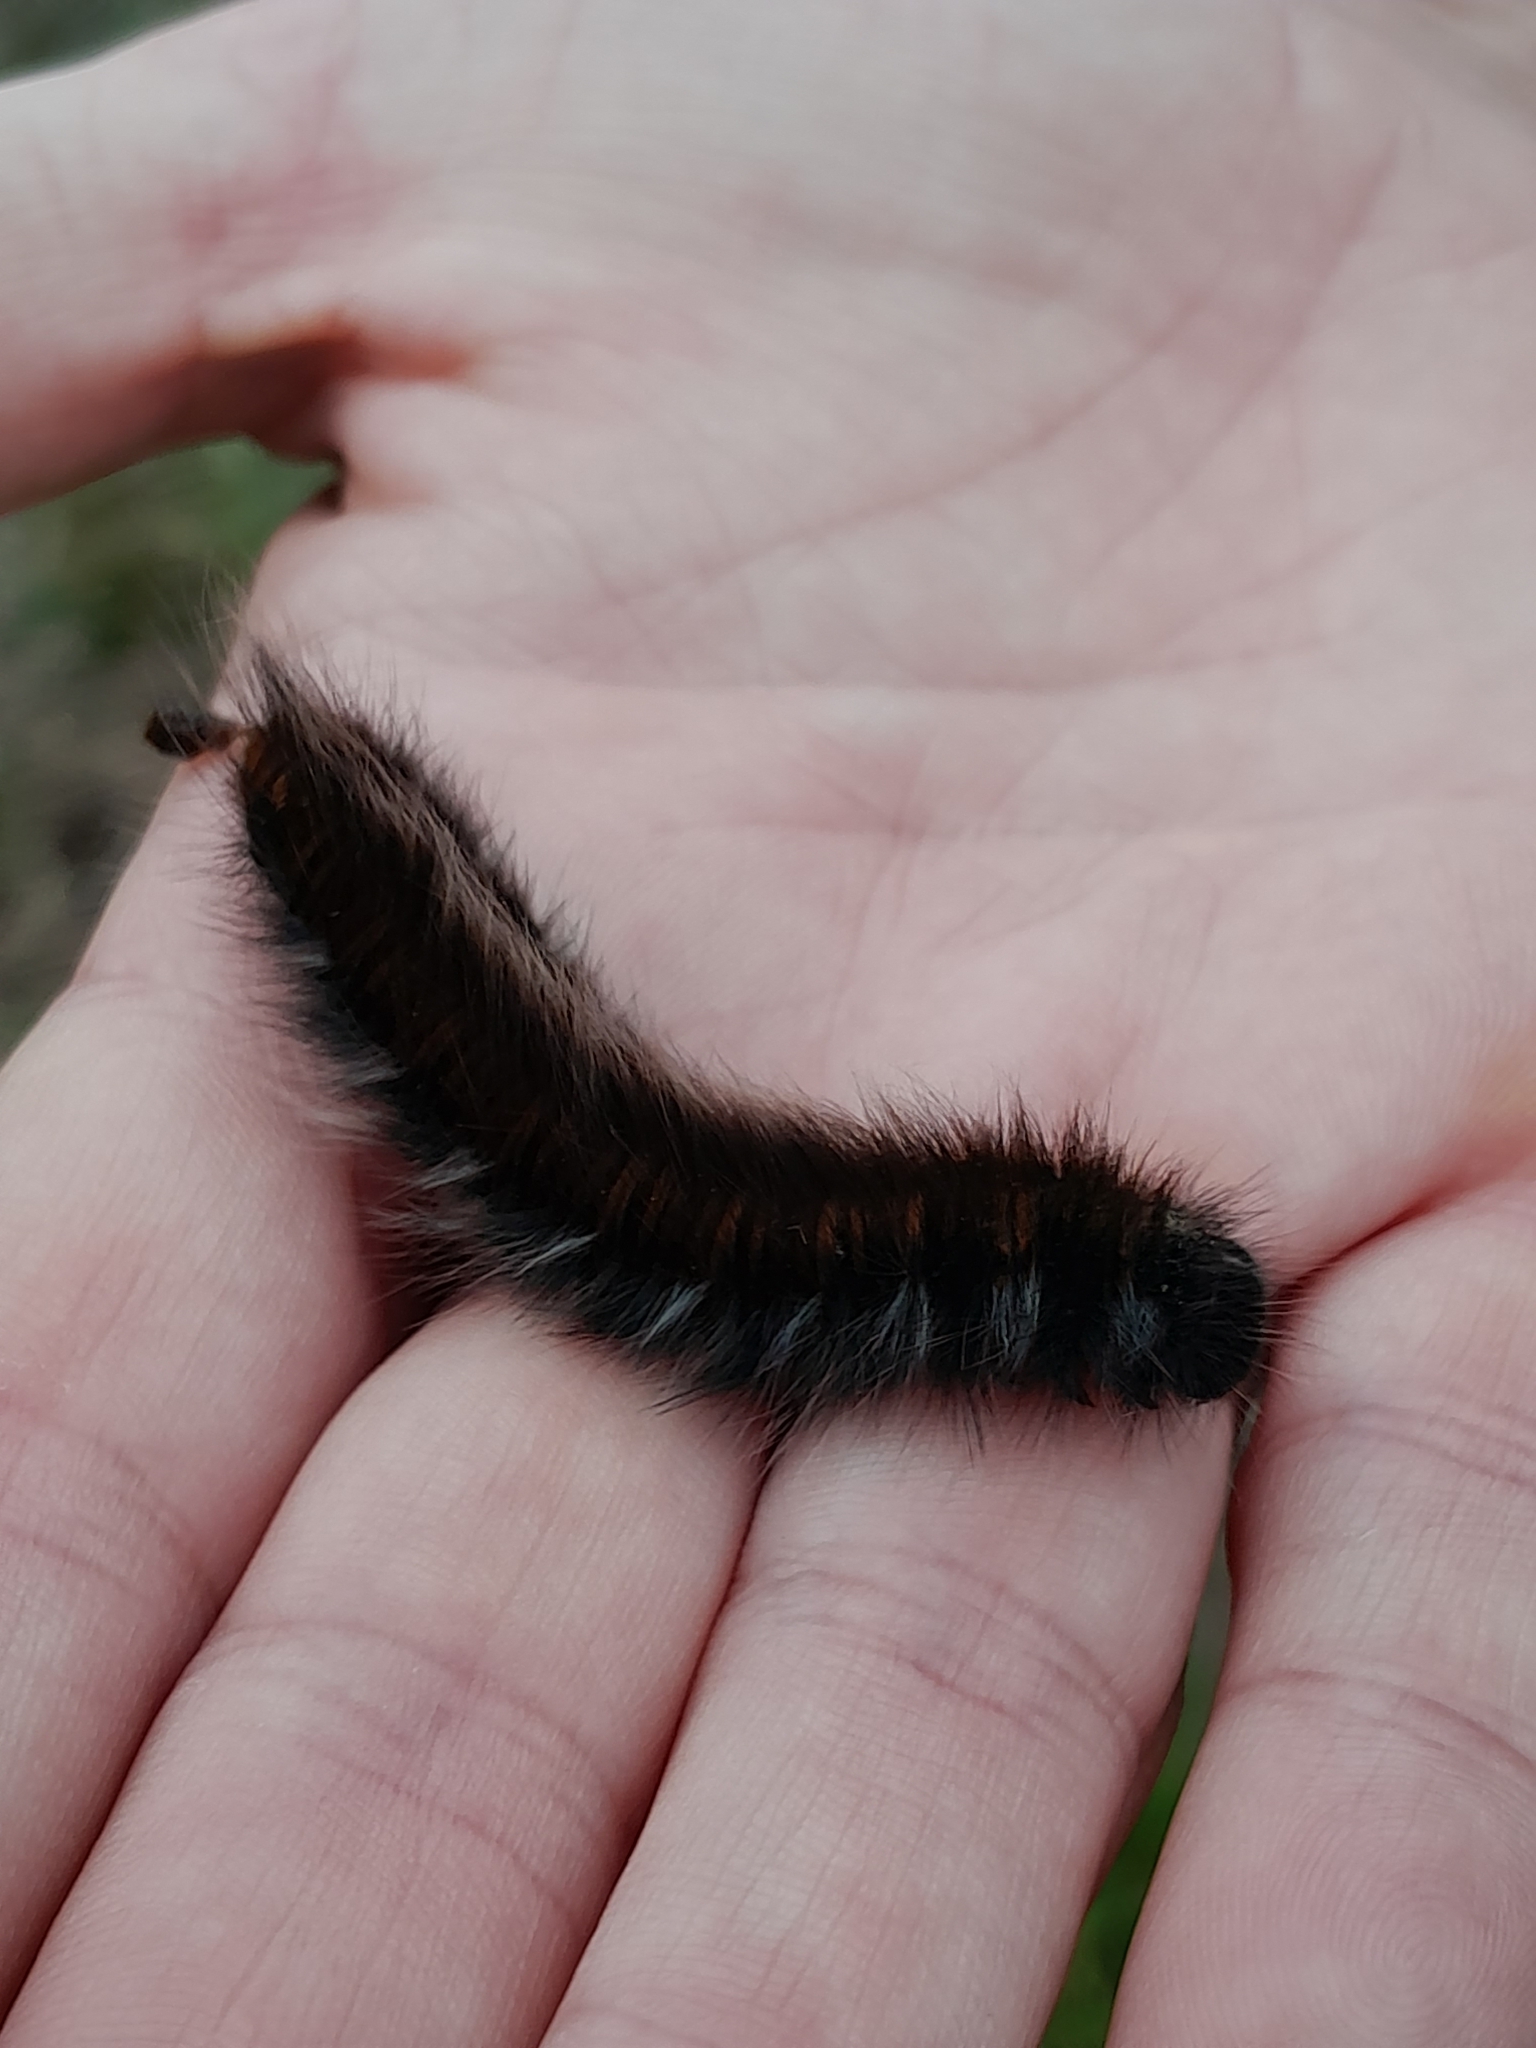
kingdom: Animalia
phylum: Arthropoda
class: Insecta
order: Lepidoptera
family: Lasiocampidae
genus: Macrothylacia
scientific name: Macrothylacia rubi
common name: Fox moth
